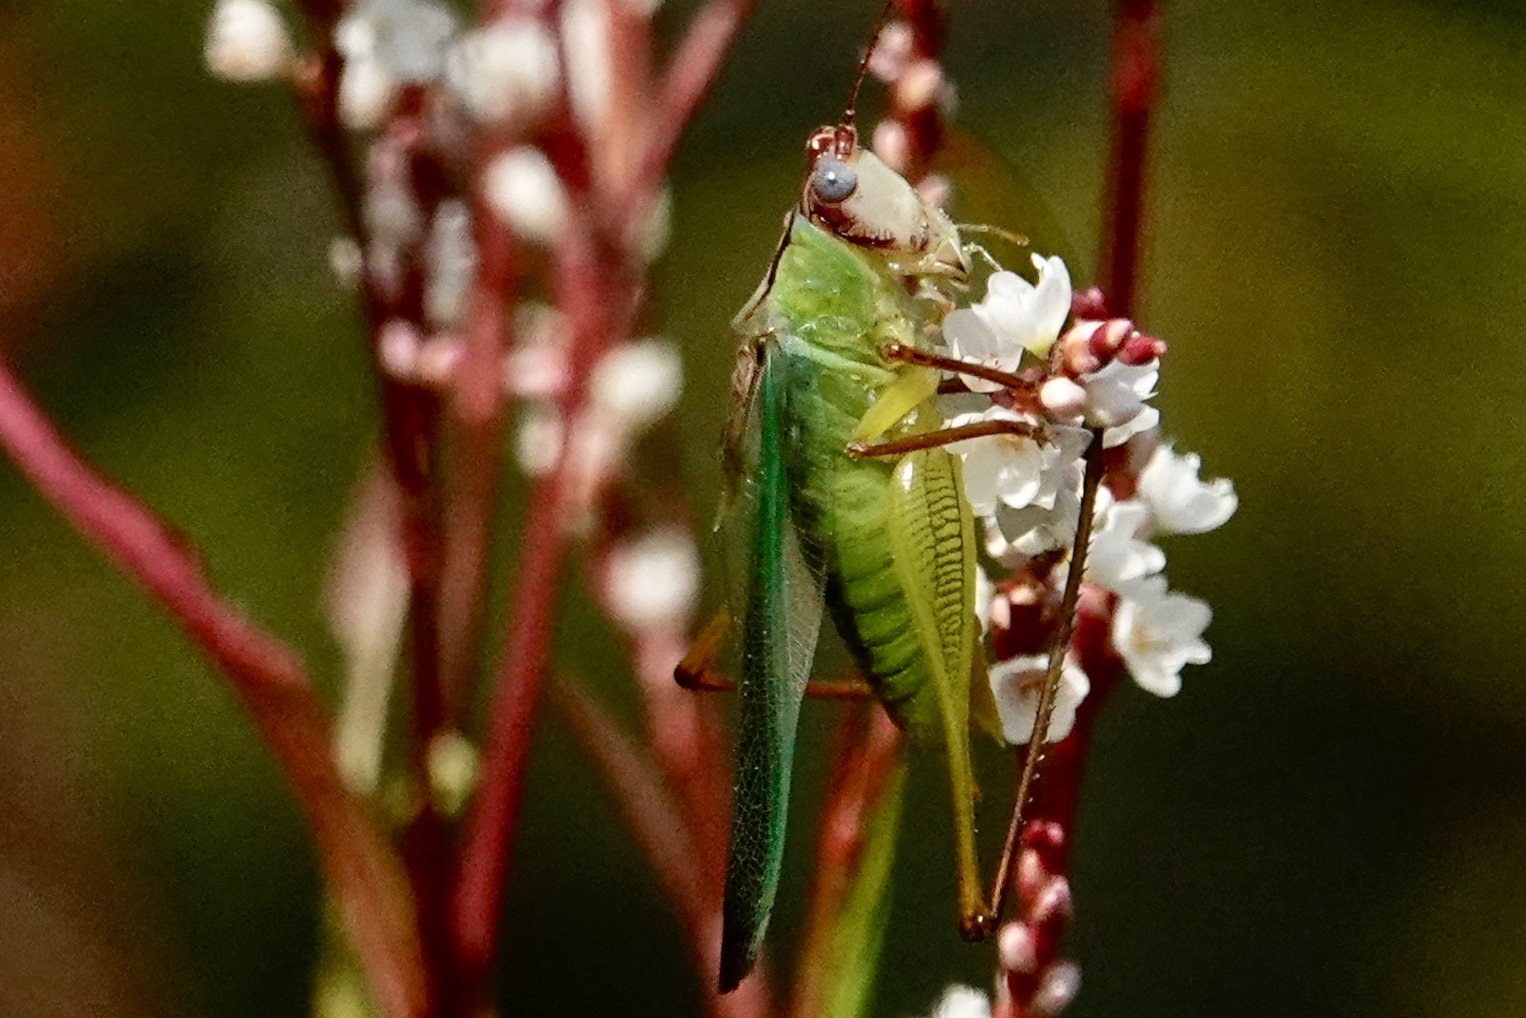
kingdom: Animalia
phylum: Arthropoda
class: Insecta
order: Orthoptera
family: Tettigoniidae
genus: Orchelimum
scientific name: Orchelimum pulchellum
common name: Handsome meadow katydid
